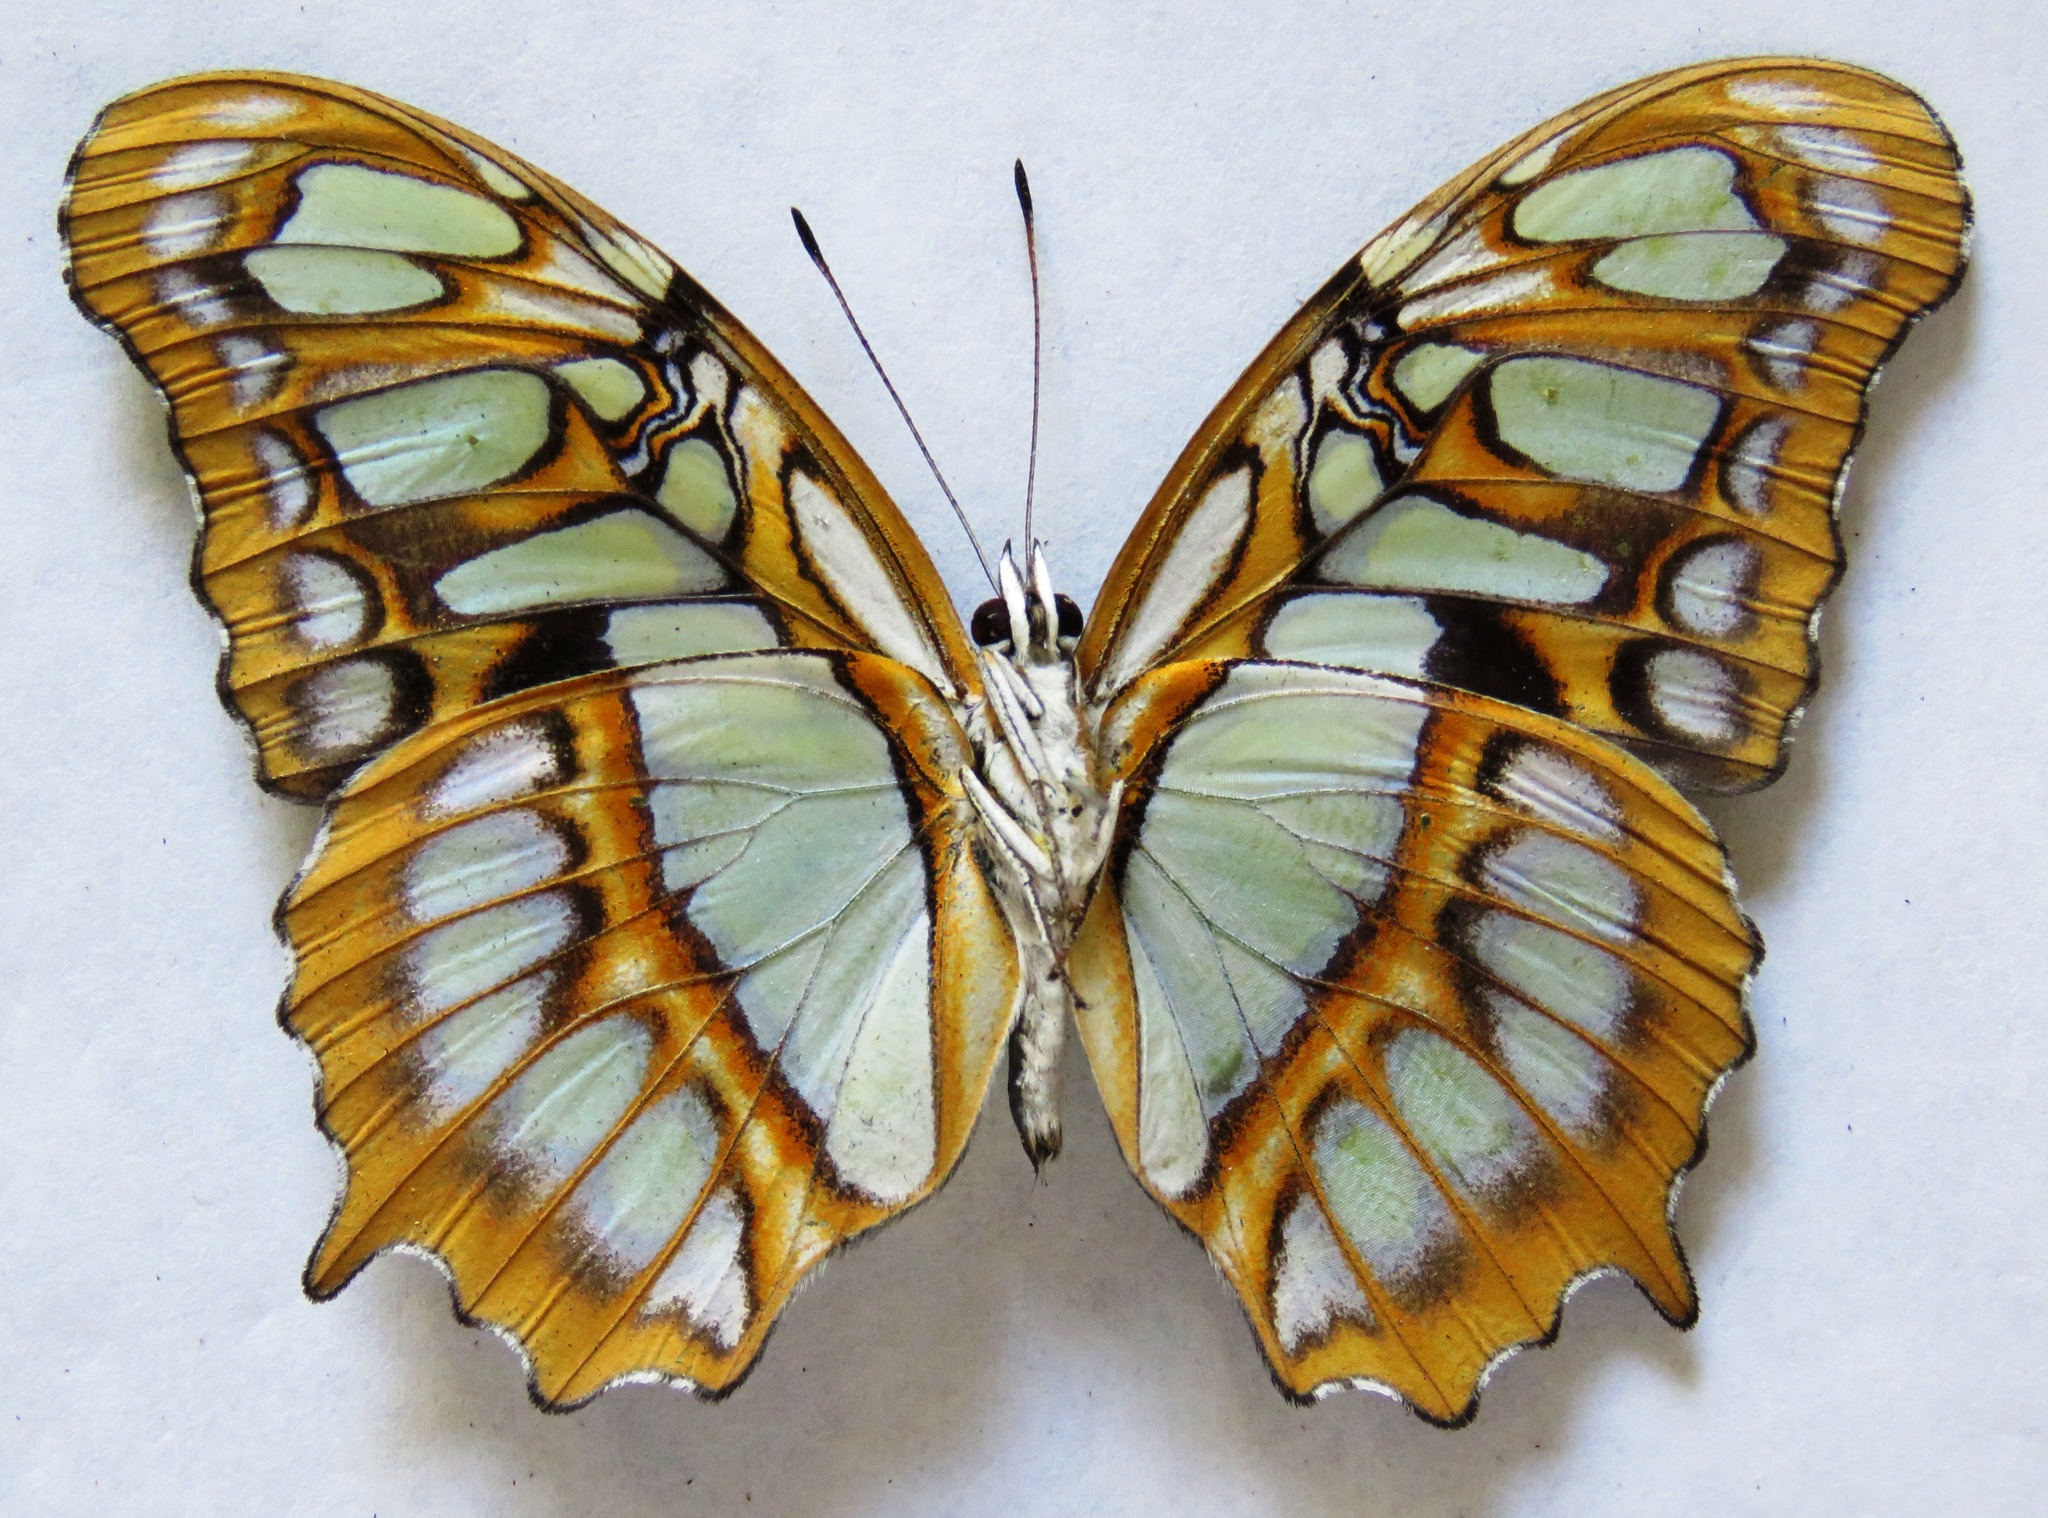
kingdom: Animalia
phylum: Arthropoda
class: Insecta
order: Lepidoptera
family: Nymphalidae
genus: Siproeta
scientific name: Siproeta stelenes
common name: Malachite
